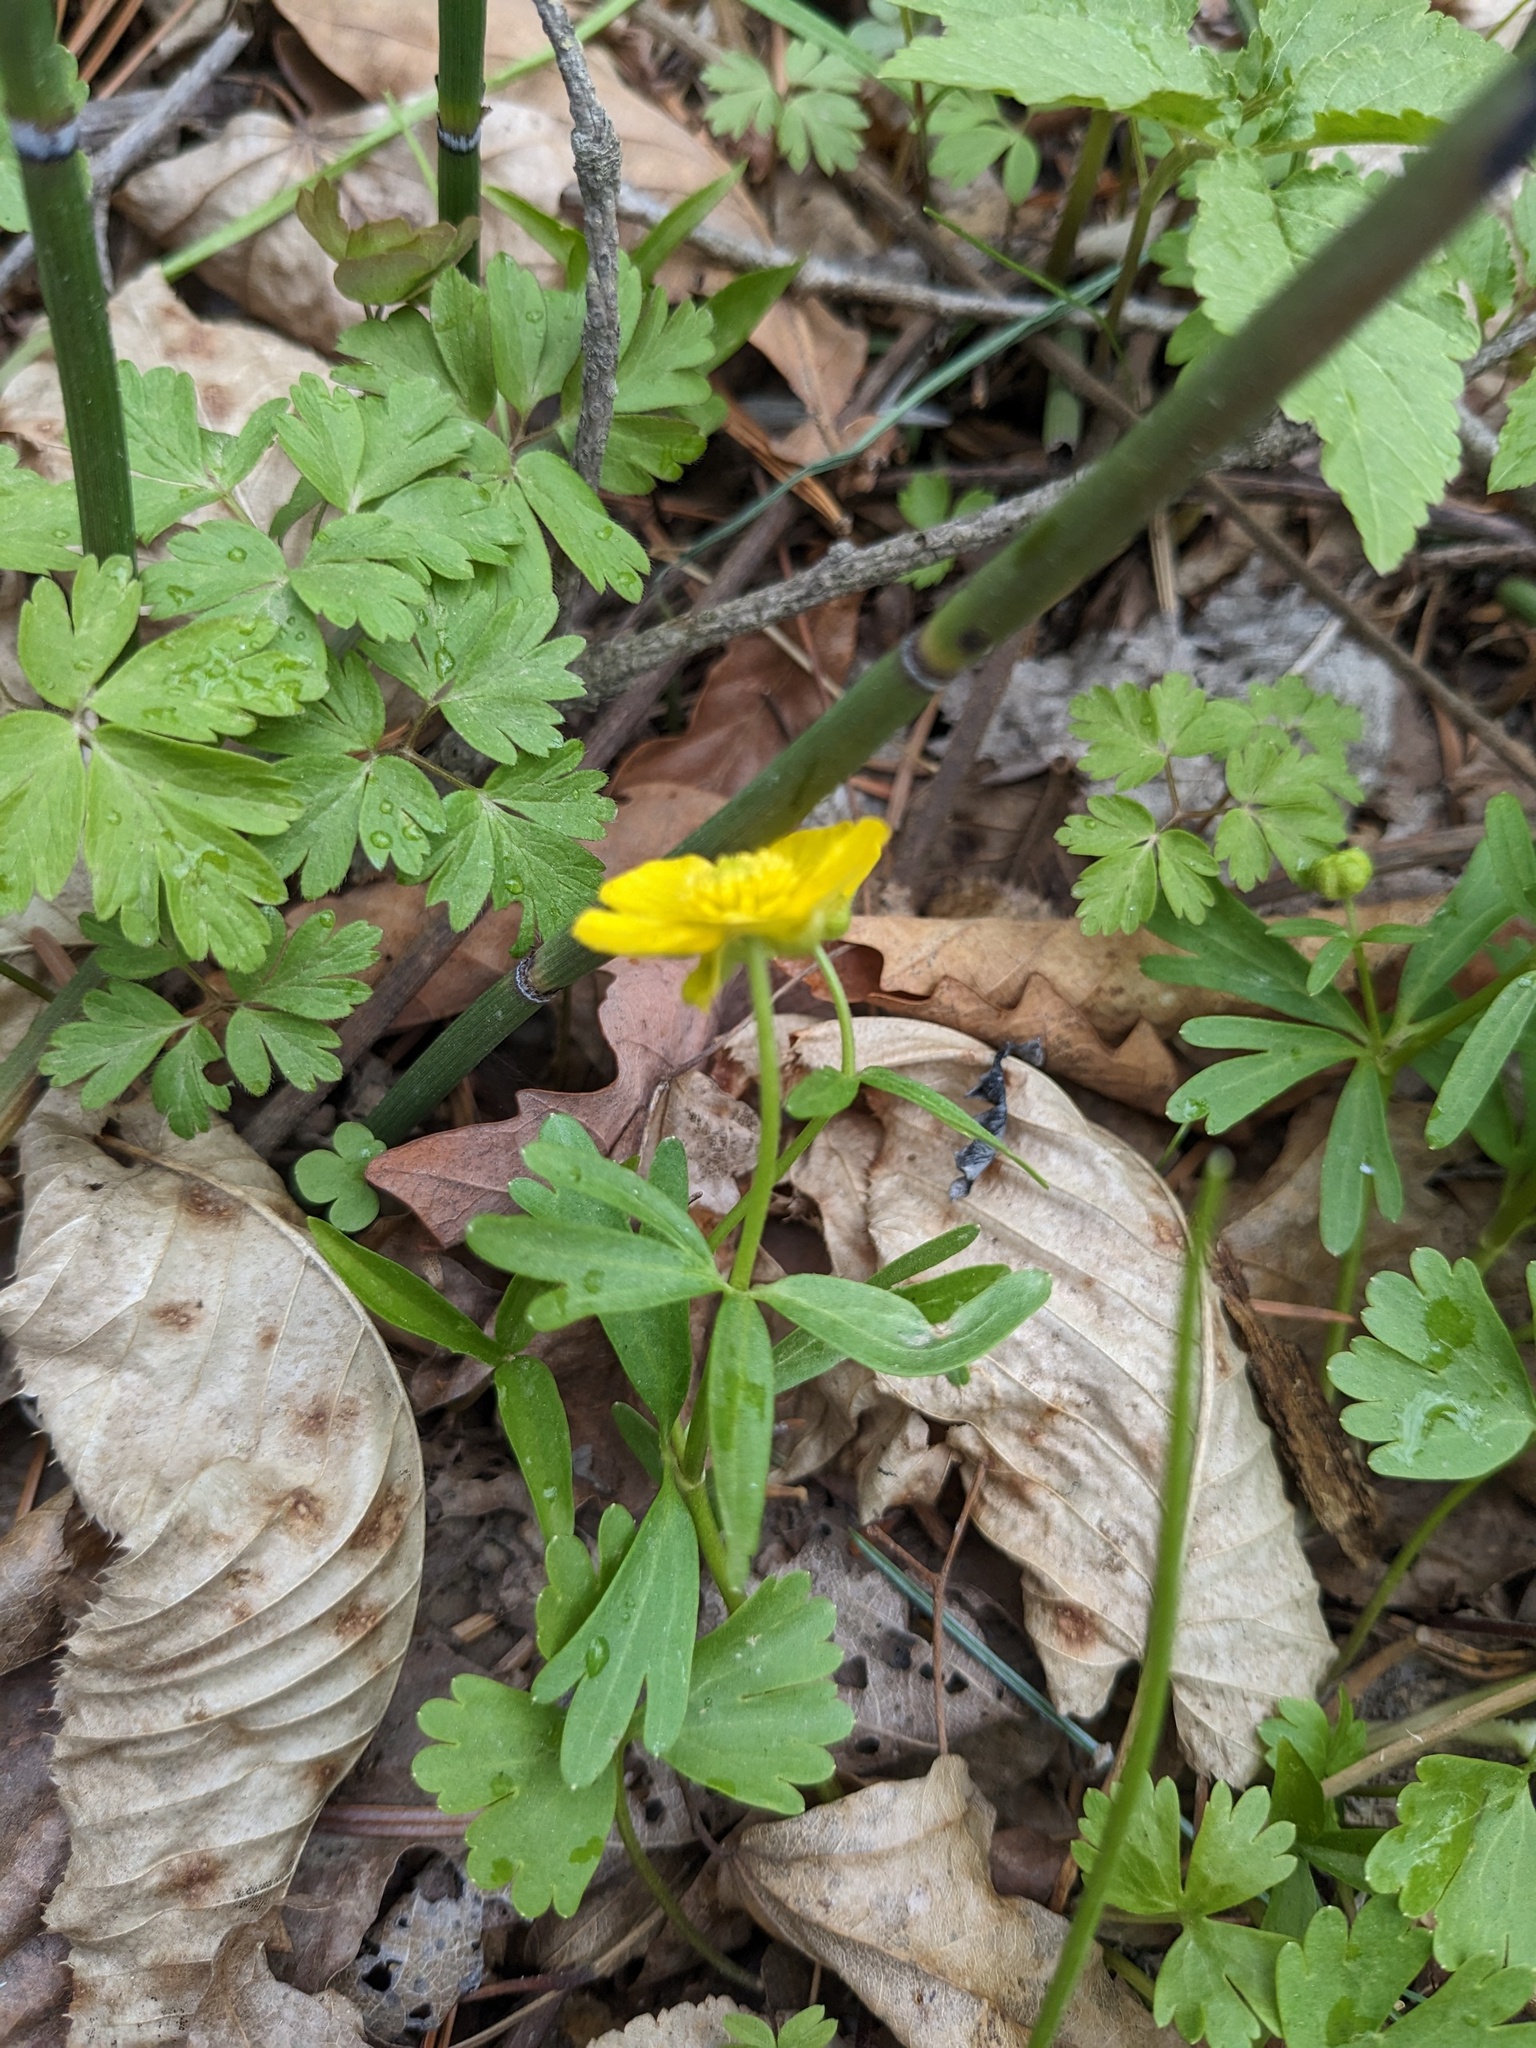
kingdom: Plantae
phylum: Tracheophyta
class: Magnoliopsida
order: Ranunculales
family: Ranunculaceae
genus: Ranunculus
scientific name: Ranunculus franchetii
